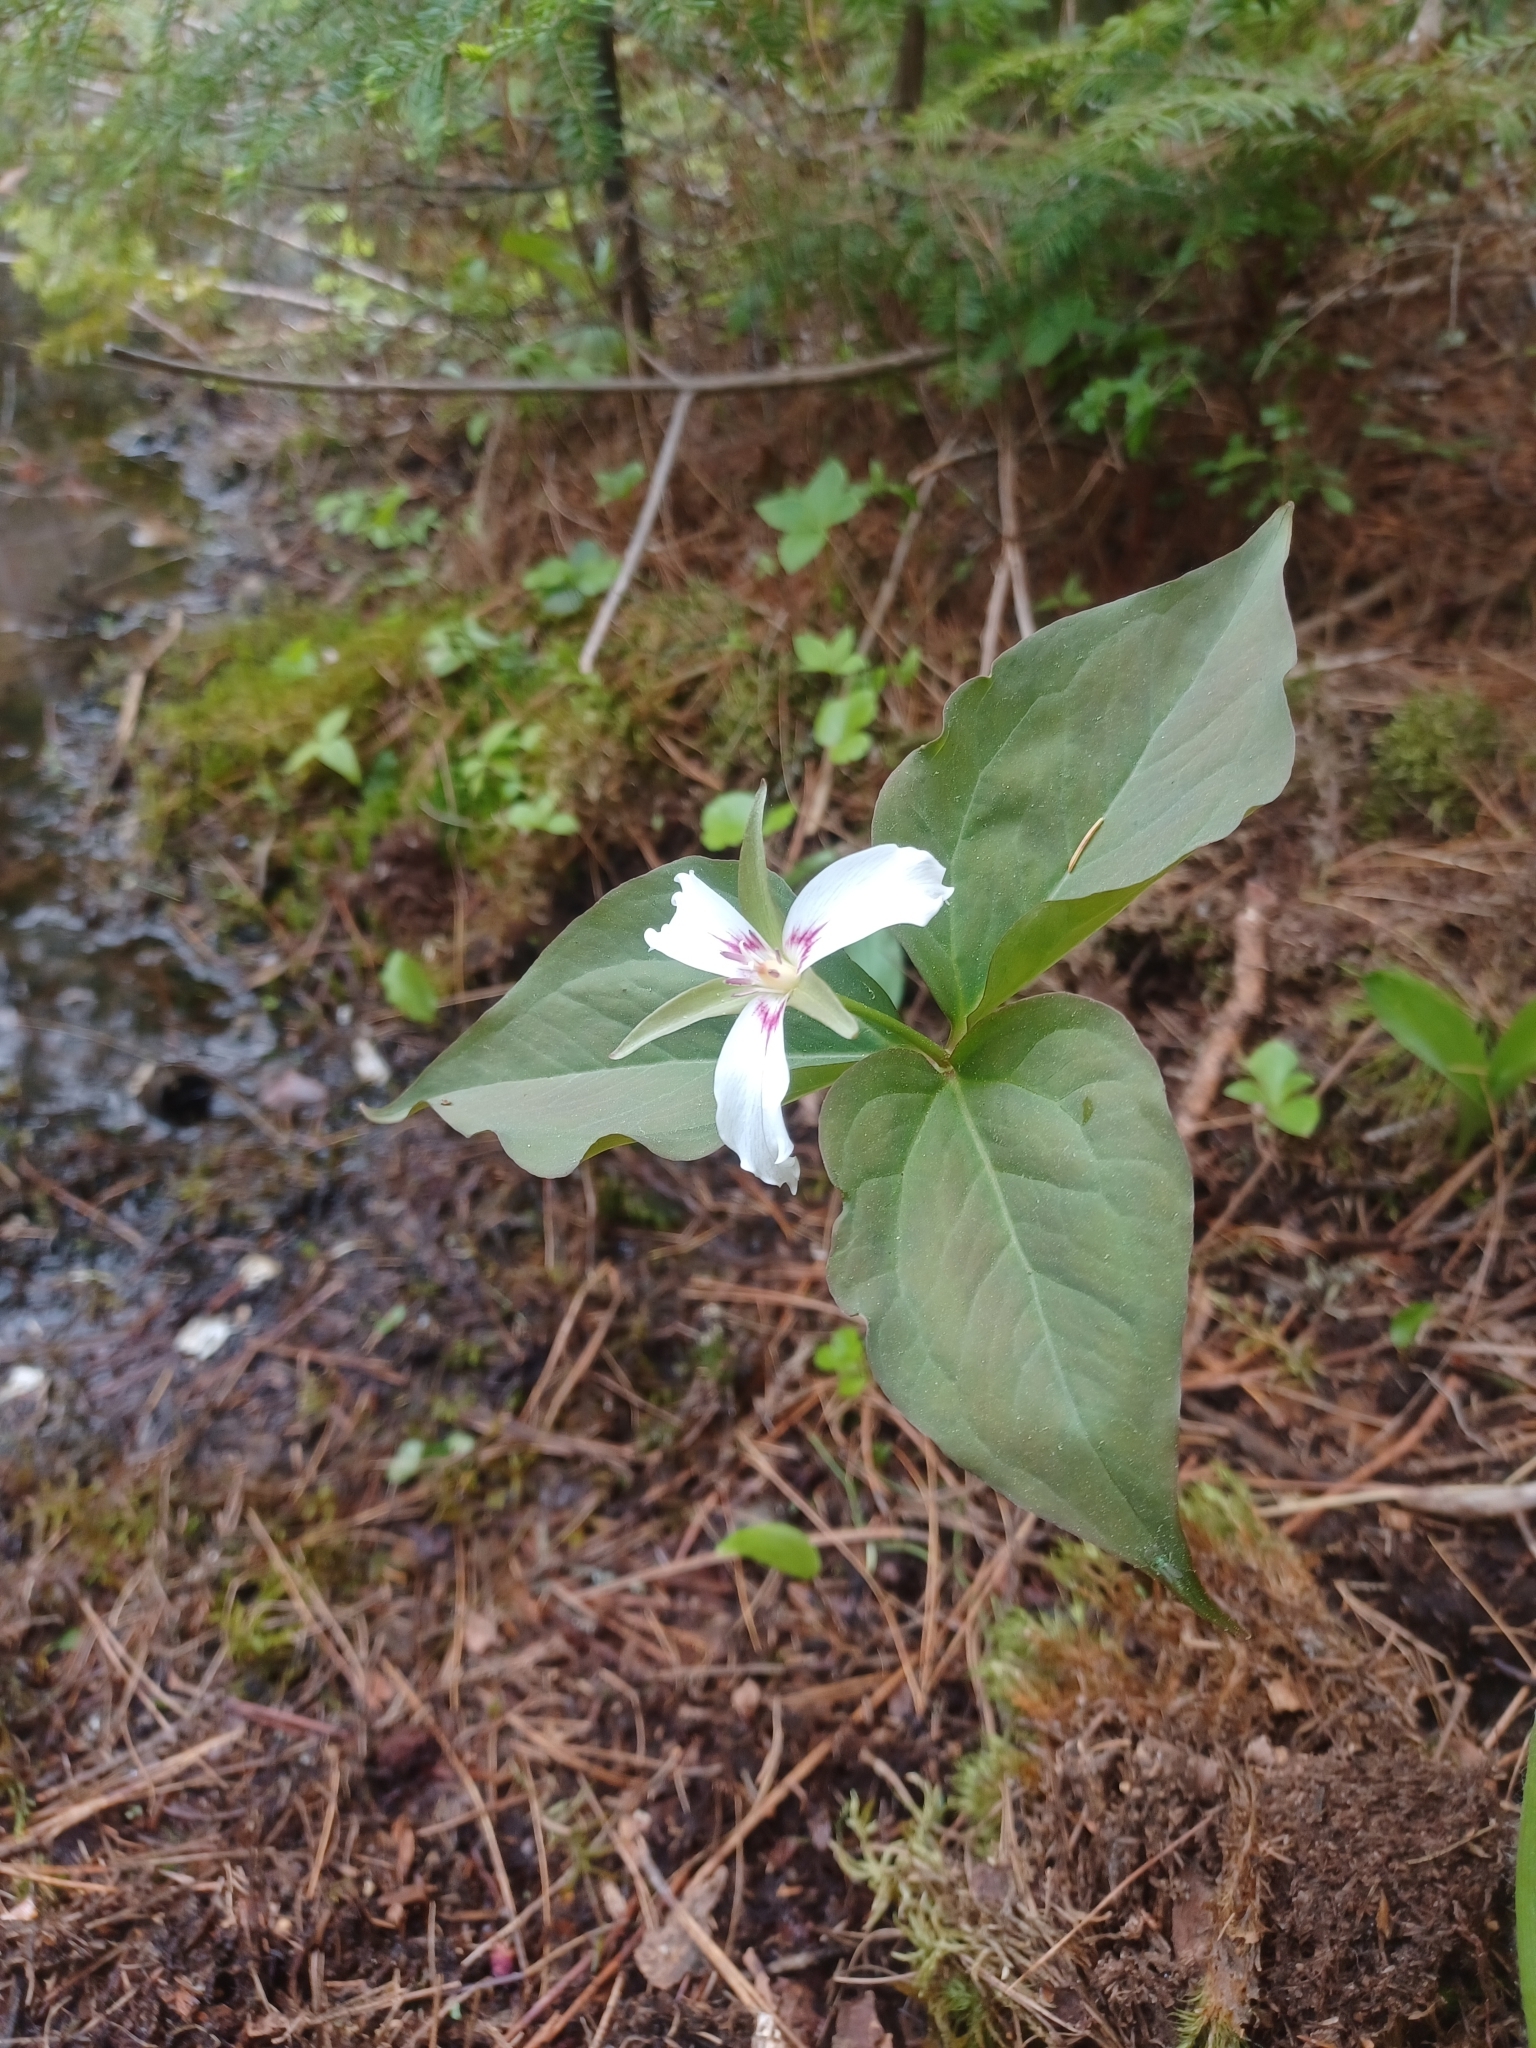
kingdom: Plantae
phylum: Tracheophyta
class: Liliopsida
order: Liliales
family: Melanthiaceae
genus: Trillium
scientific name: Trillium undulatum
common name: Paint trillium
